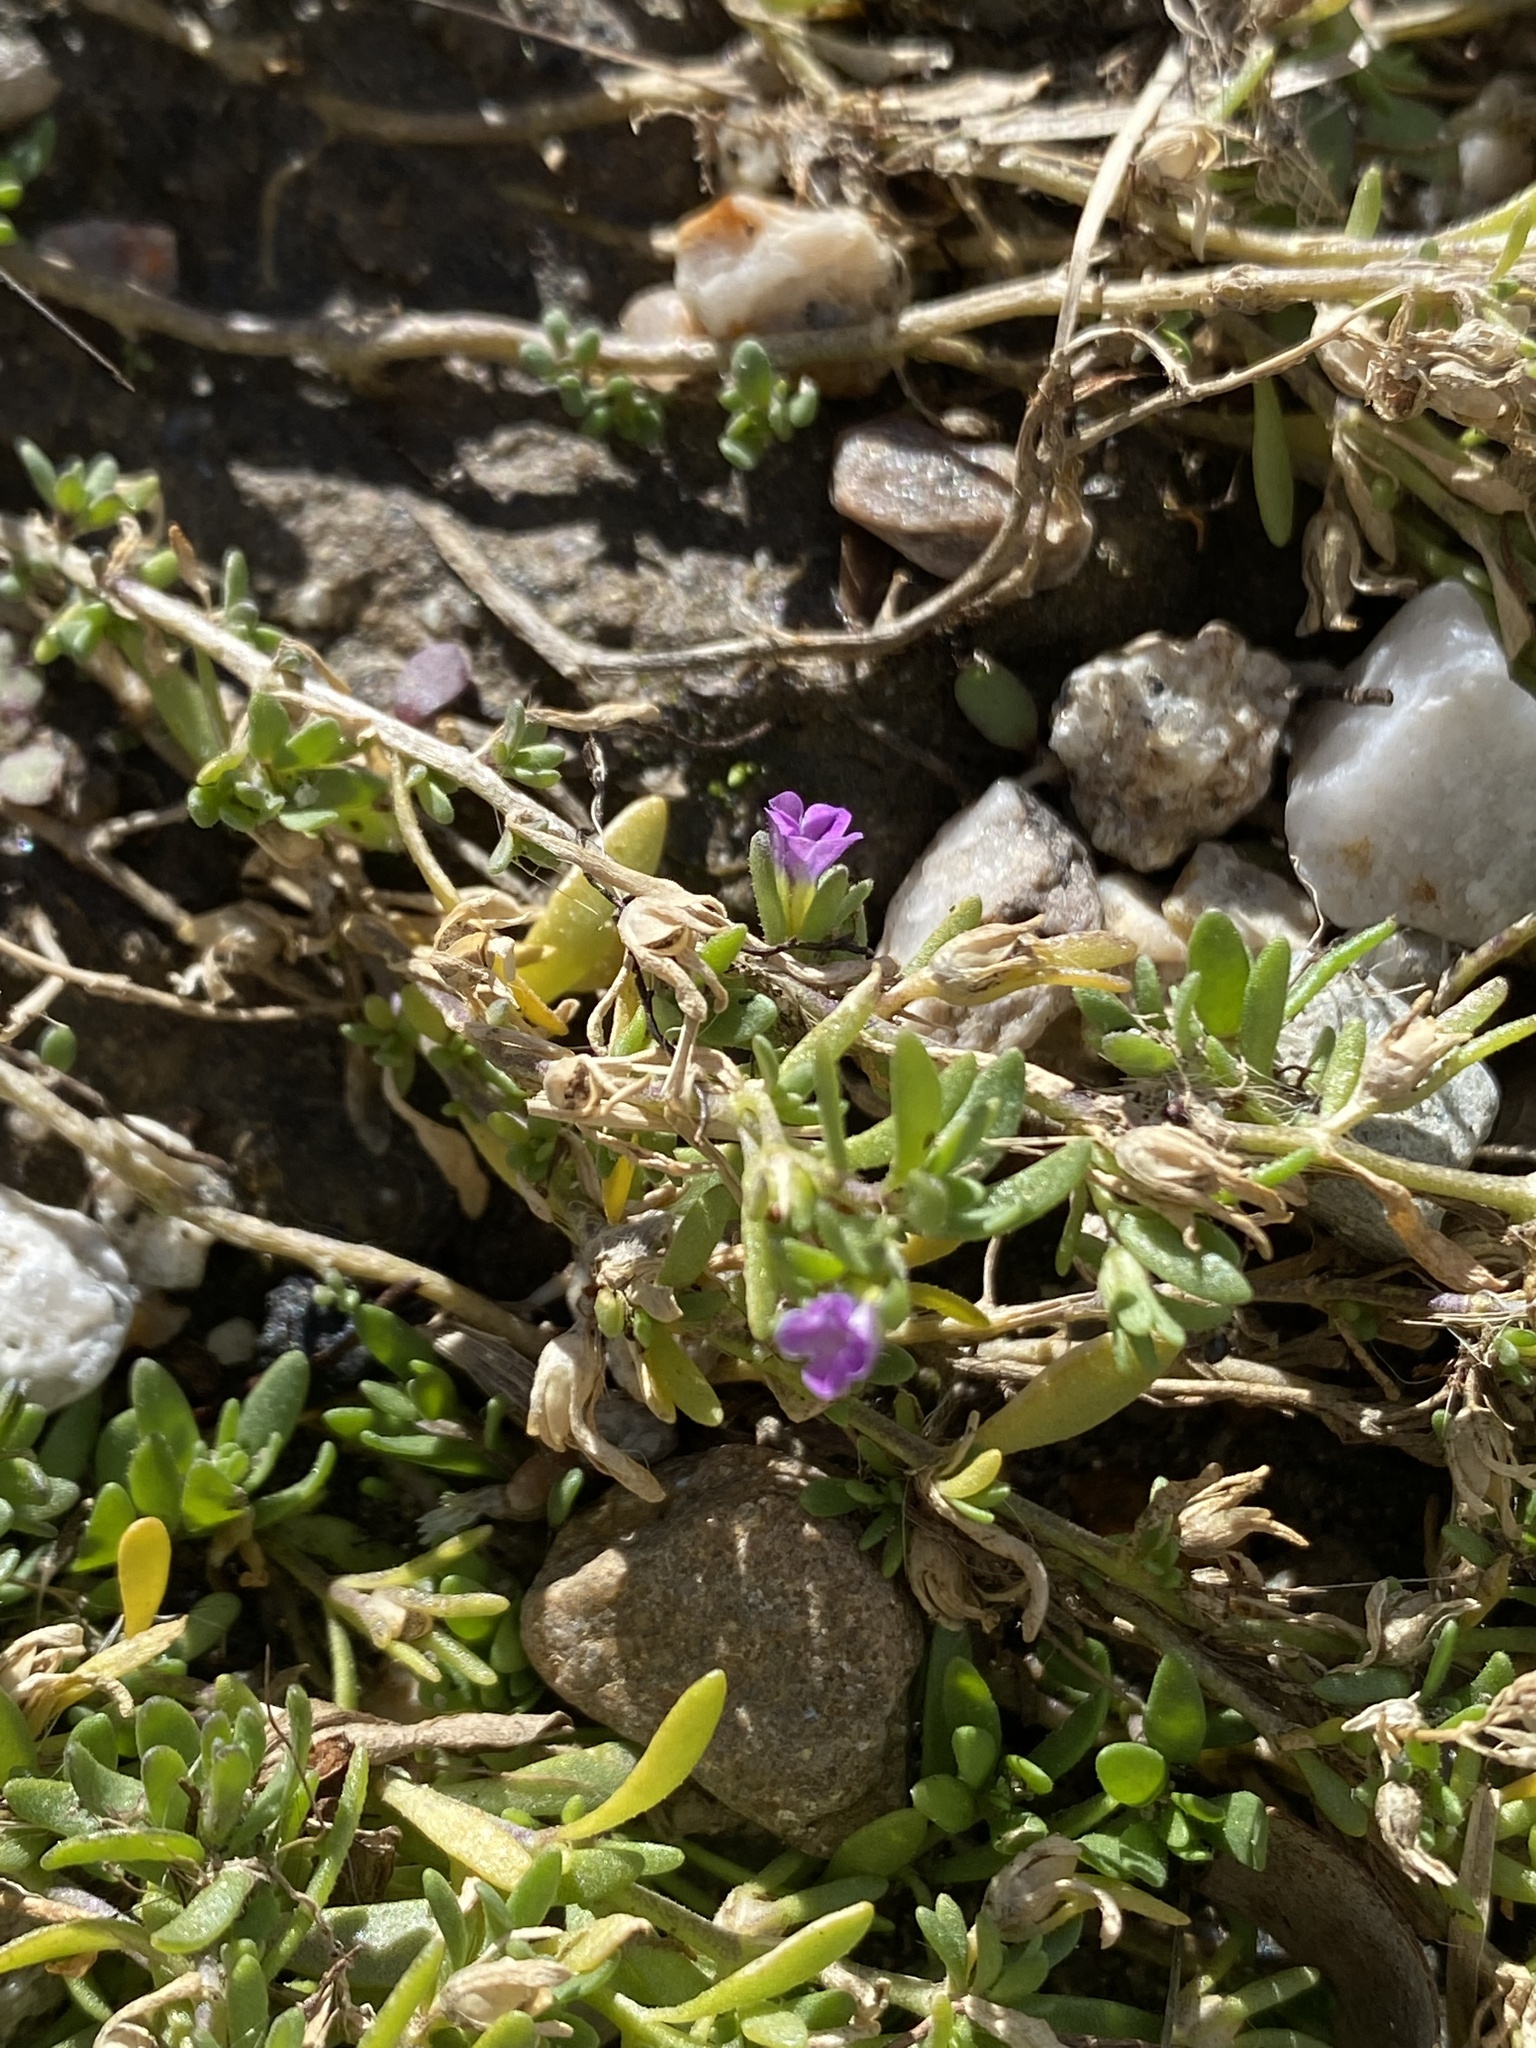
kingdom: Plantae
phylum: Tracheophyta
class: Magnoliopsida
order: Solanales
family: Solanaceae
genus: Calibrachoa
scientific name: Calibrachoa parviflora
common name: Seaside petunia
